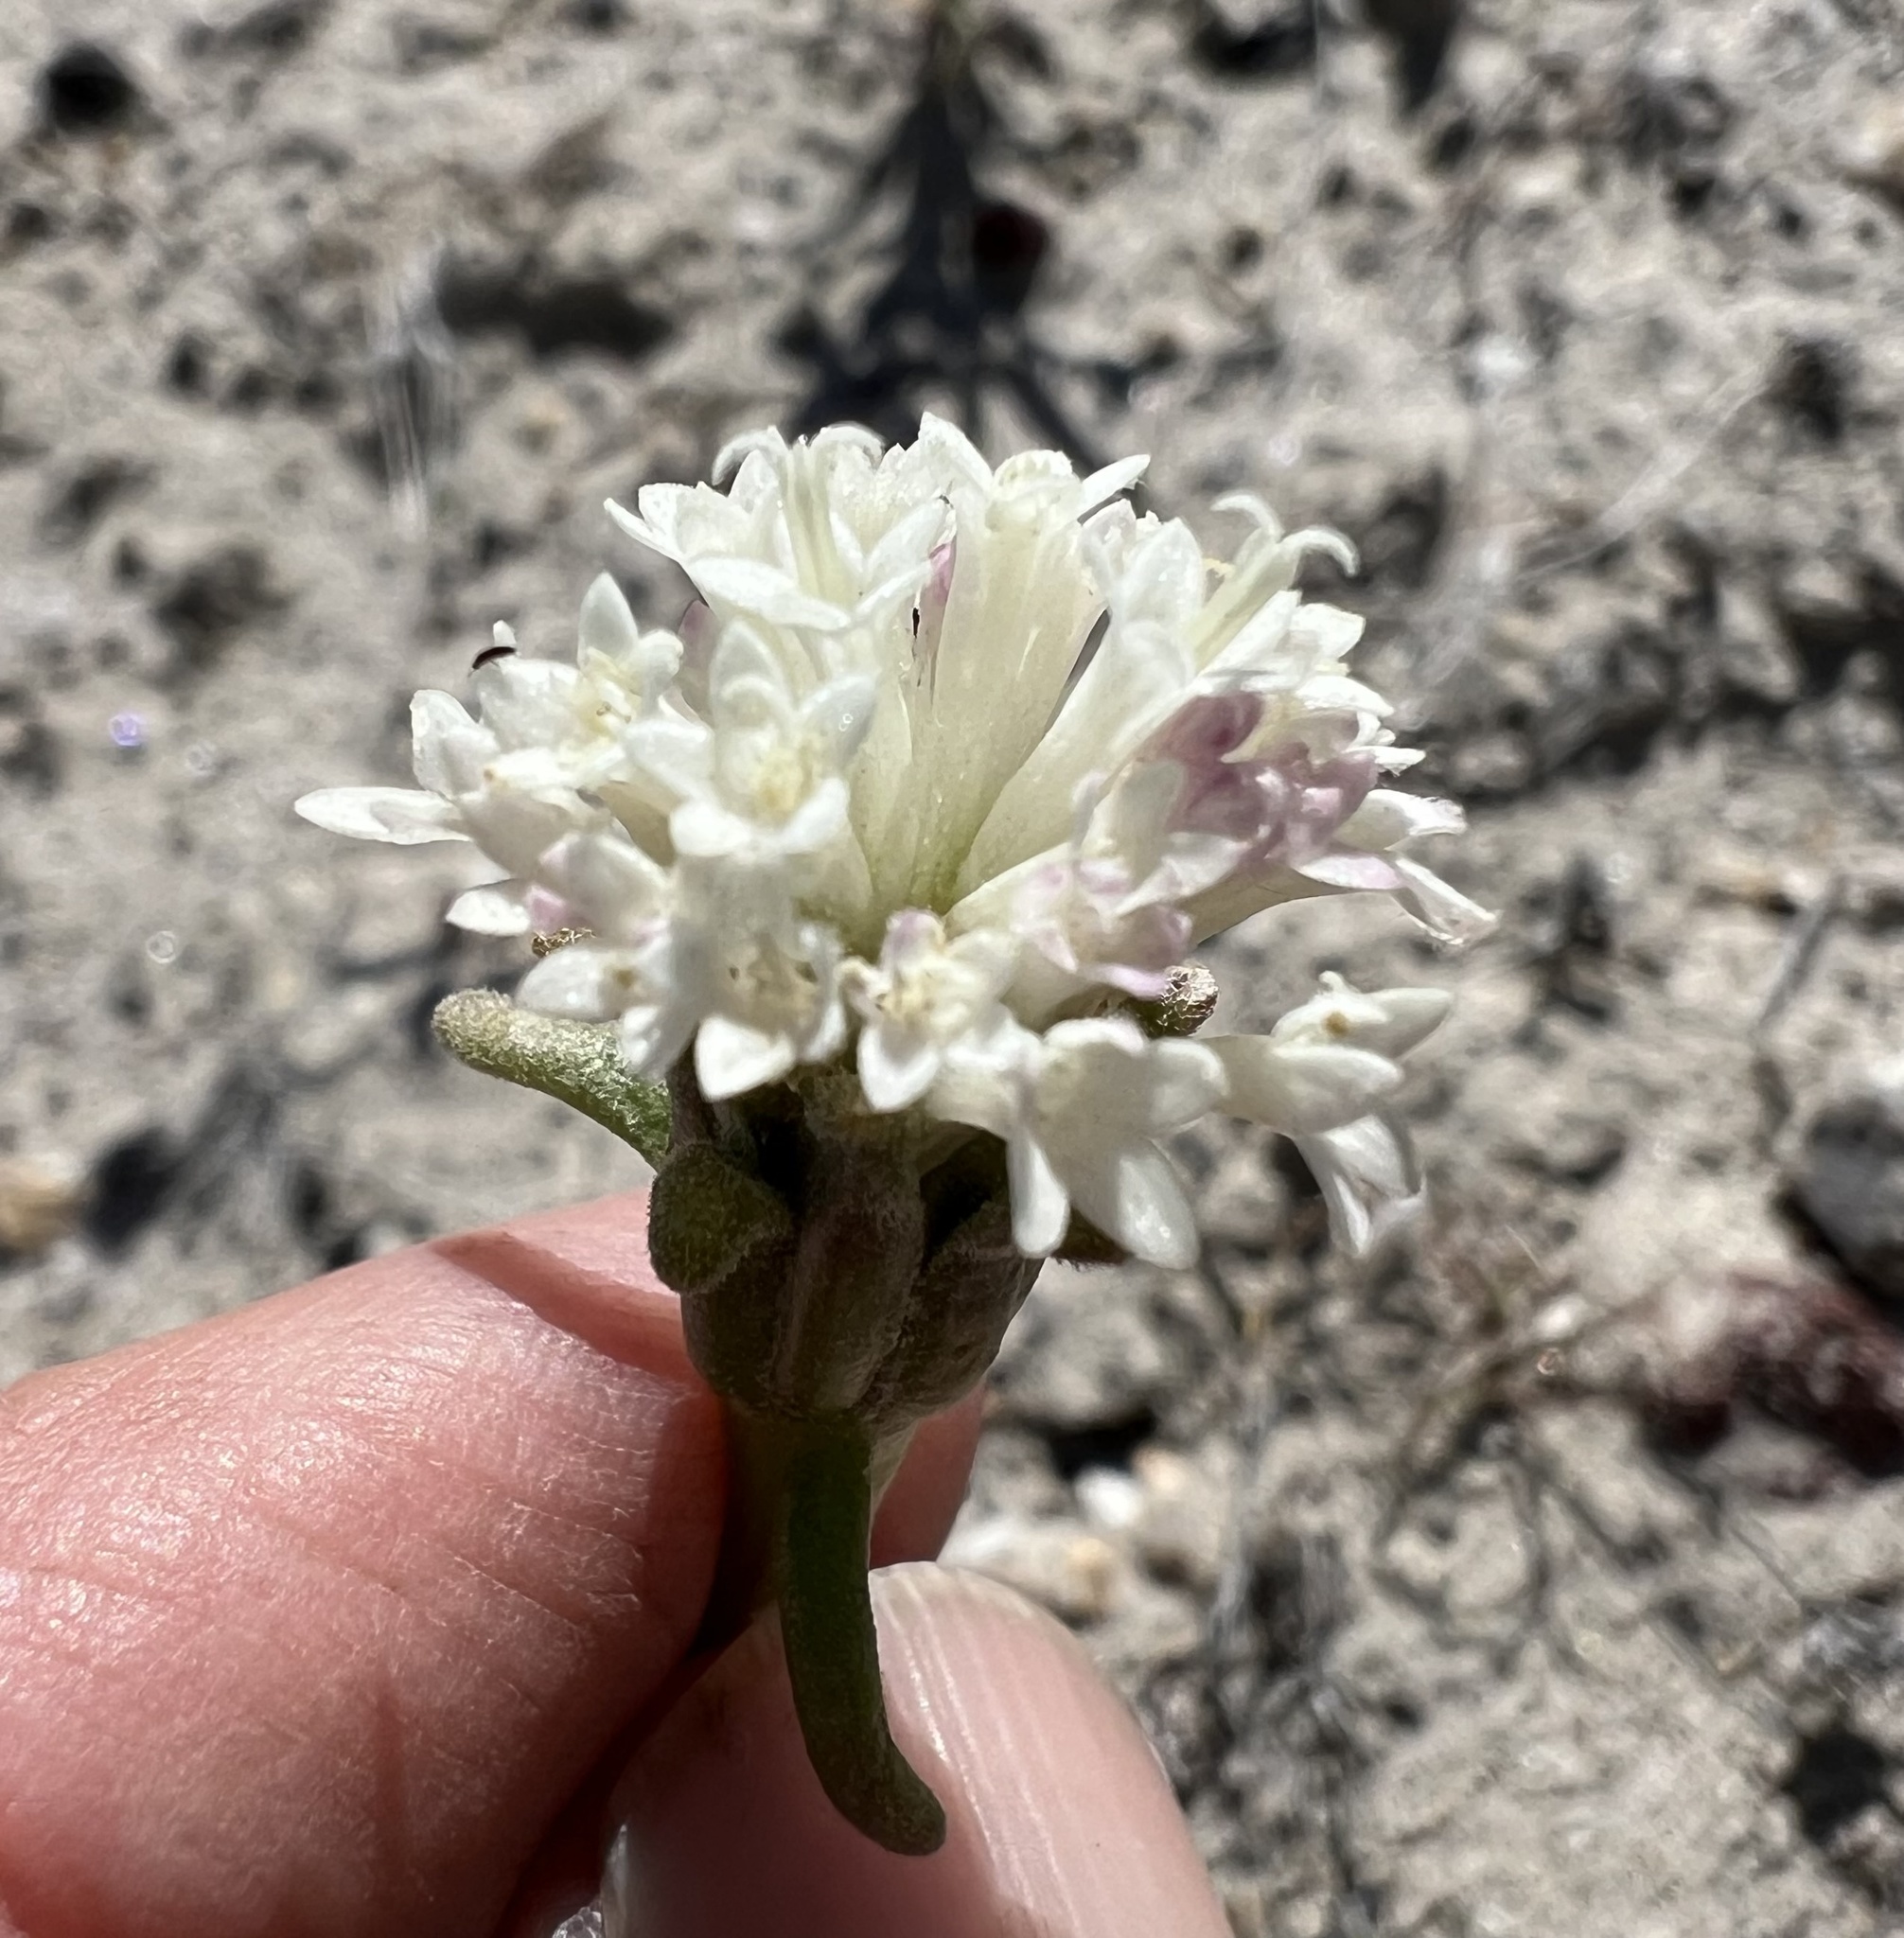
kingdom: Plantae
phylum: Tracheophyta
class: Magnoliopsida
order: Asterales
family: Asteraceae
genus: Chaenactis
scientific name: Chaenactis xantiana
